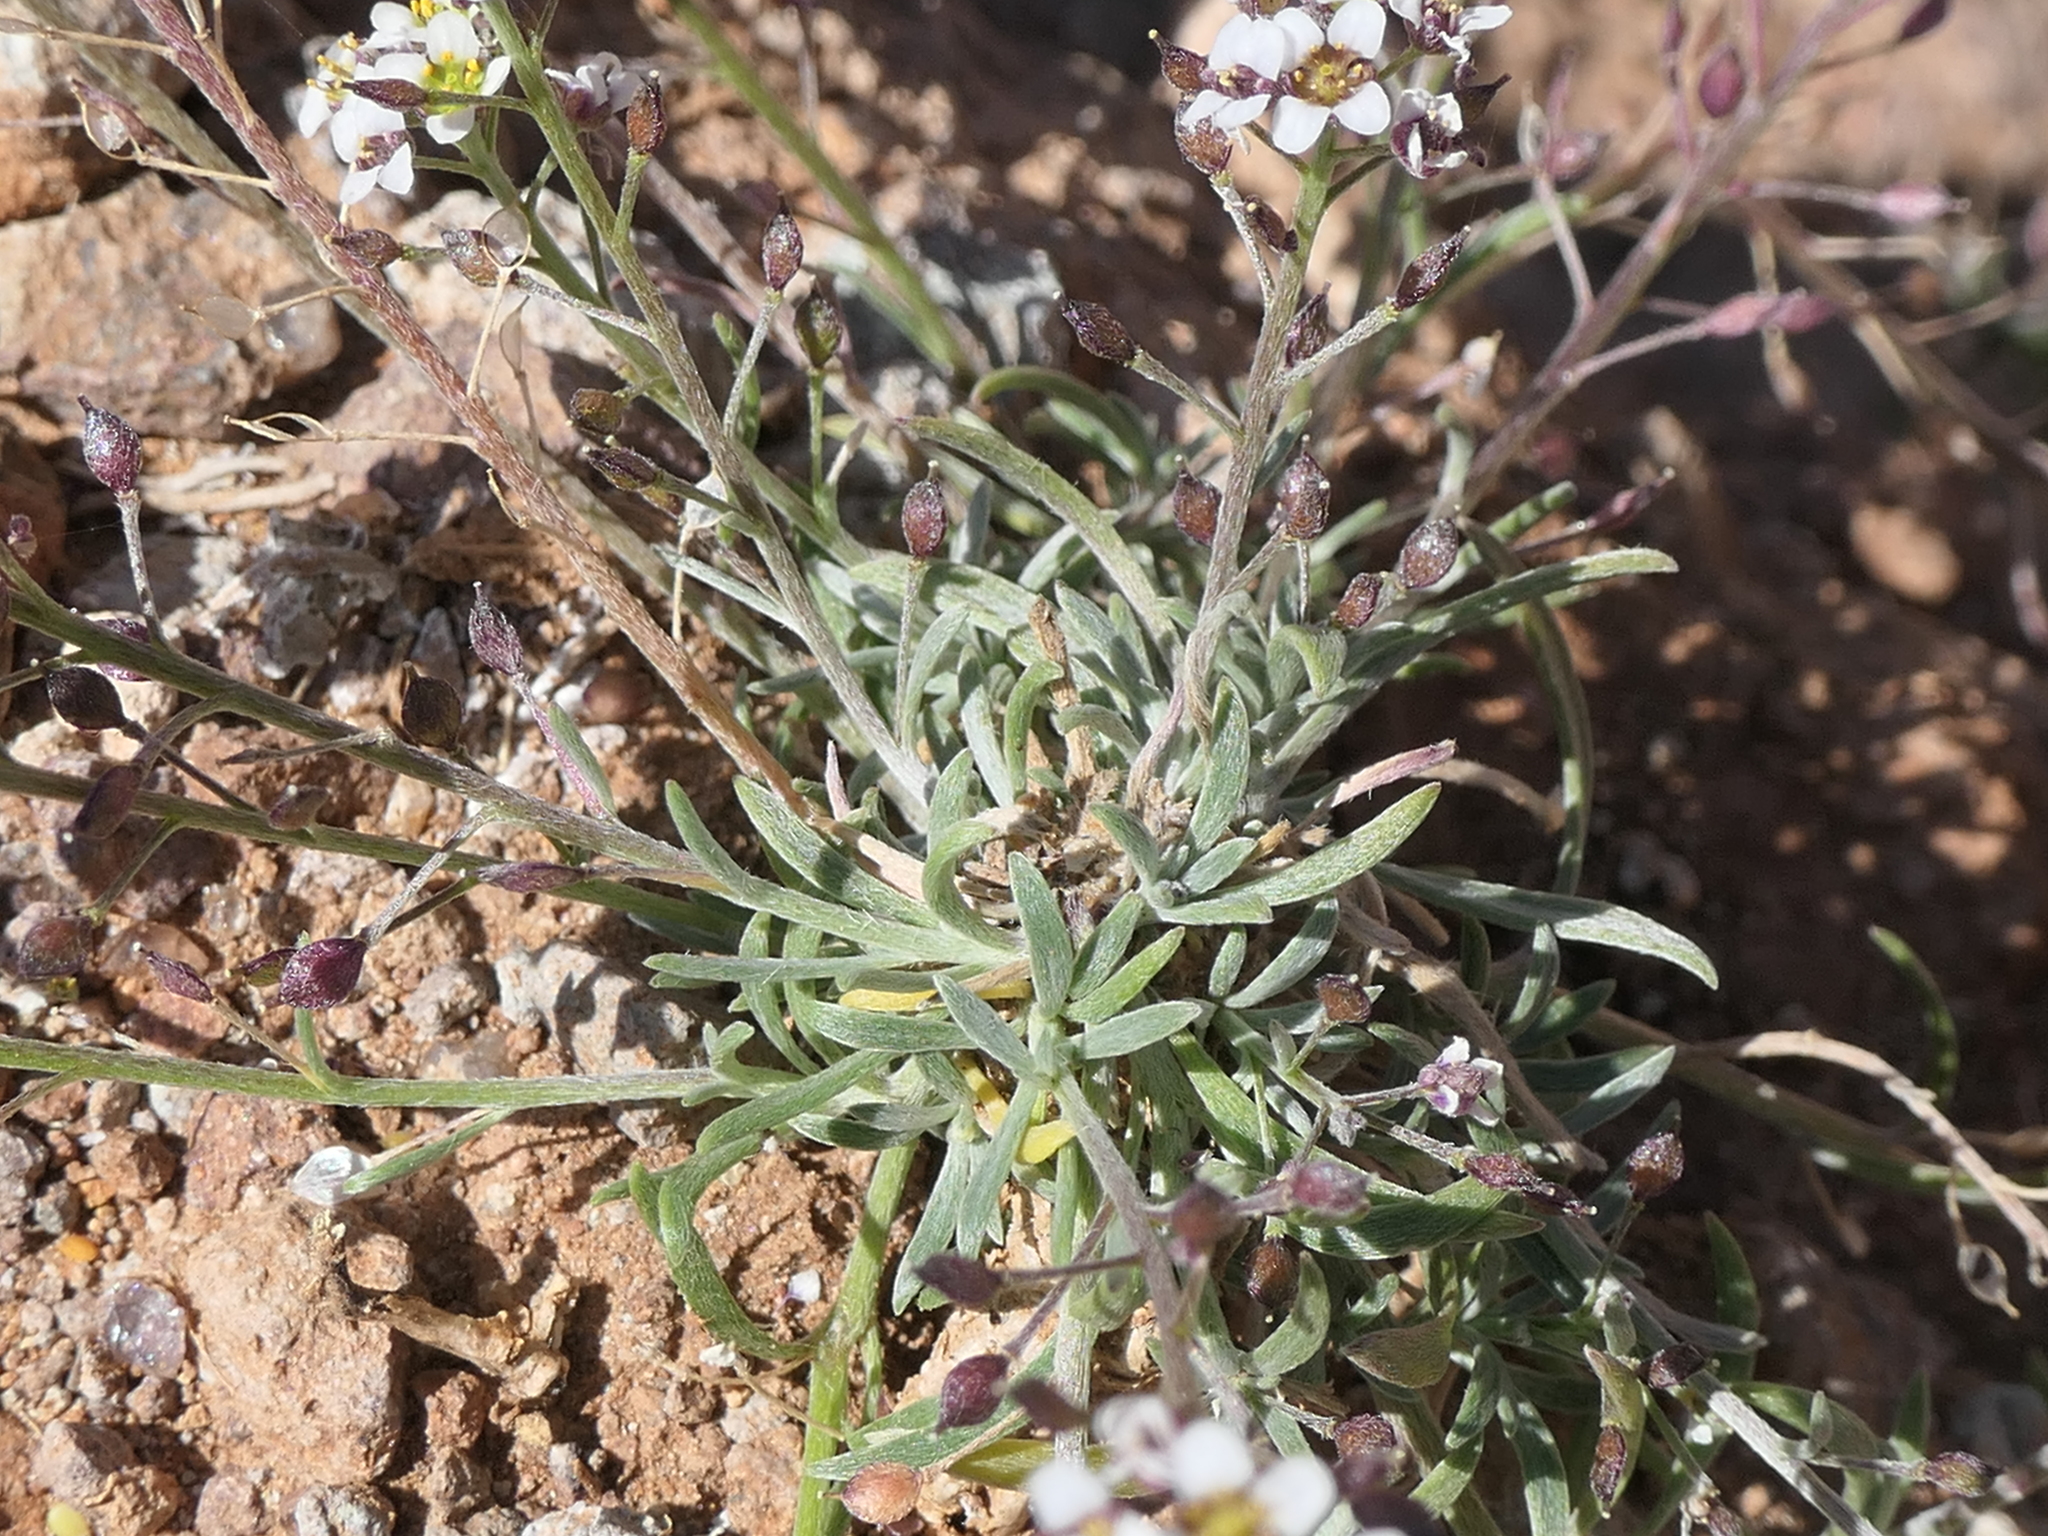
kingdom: Plantae
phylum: Tracheophyta
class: Magnoliopsida
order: Brassicales
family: Brassicaceae
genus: Lobularia
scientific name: Lobularia maritima
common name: Sweet alison
